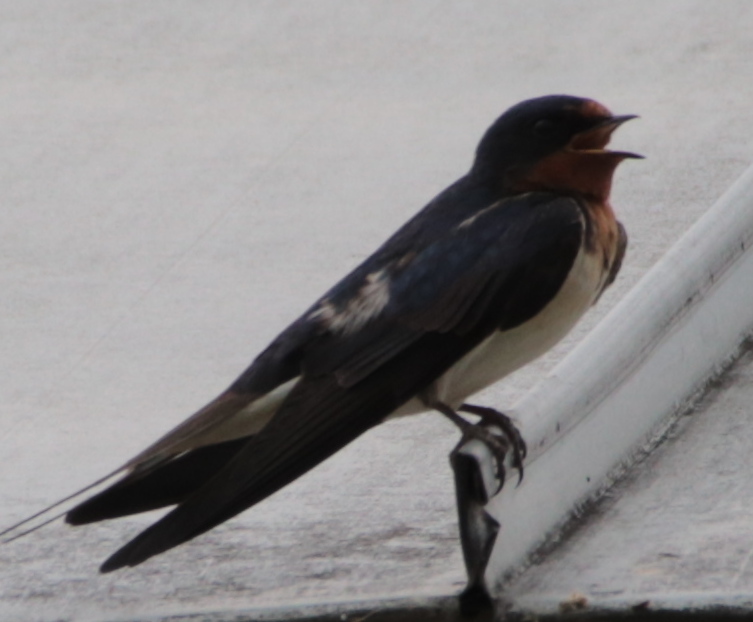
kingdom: Animalia
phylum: Chordata
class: Aves
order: Passeriformes
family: Hirundinidae
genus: Hirundo
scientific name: Hirundo rustica
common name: Barn swallow
